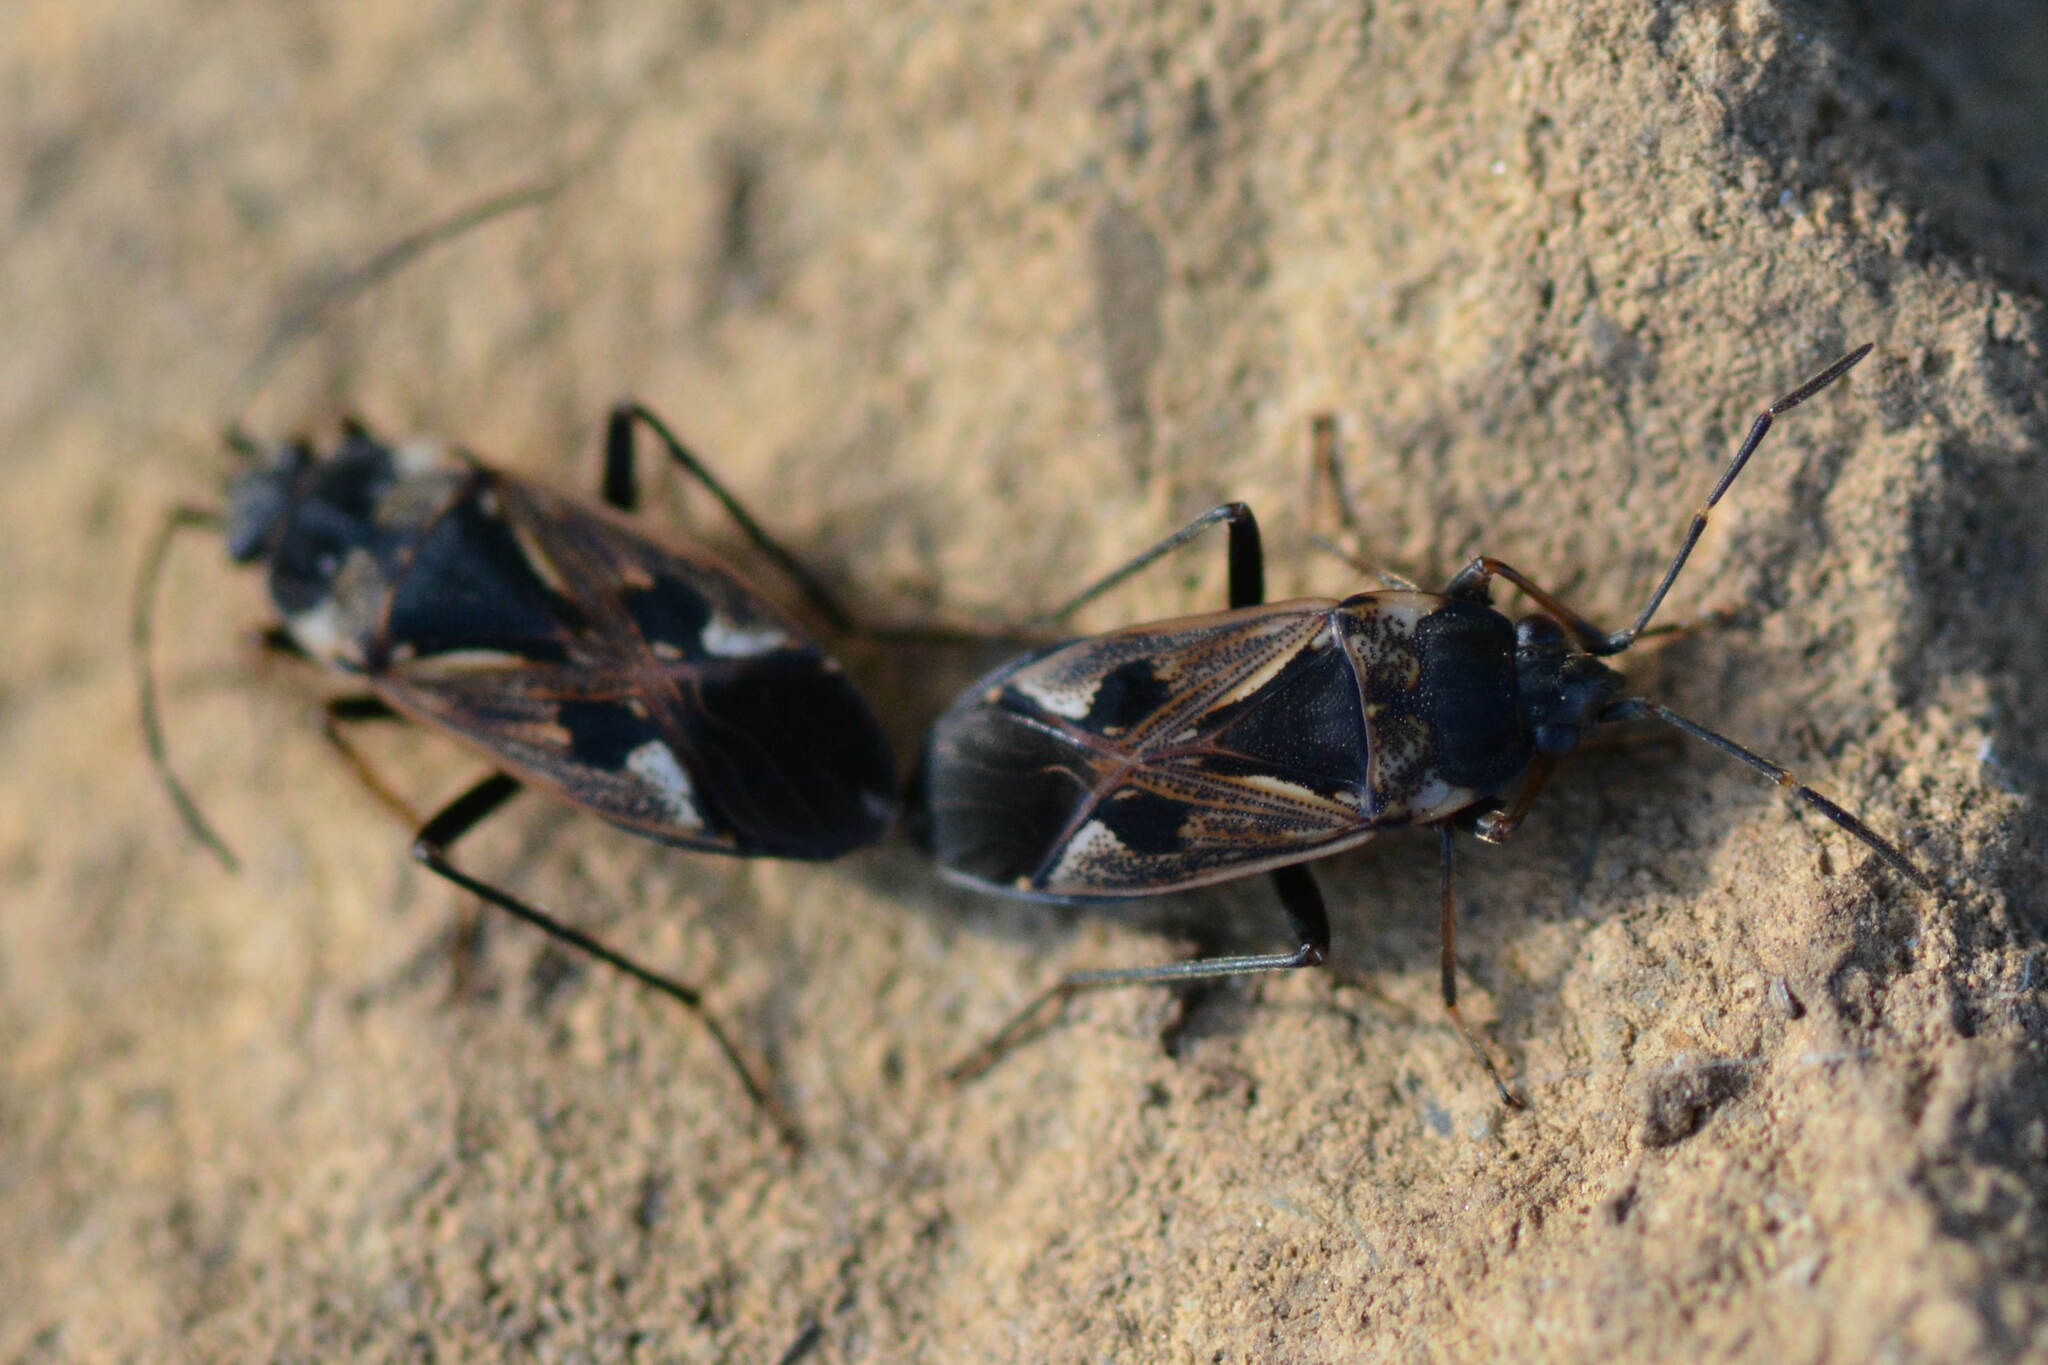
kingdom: Animalia
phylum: Arthropoda
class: Insecta
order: Hemiptera
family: Rhyparochromidae
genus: Rhyparochromus
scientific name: Rhyparochromus vulgaris
